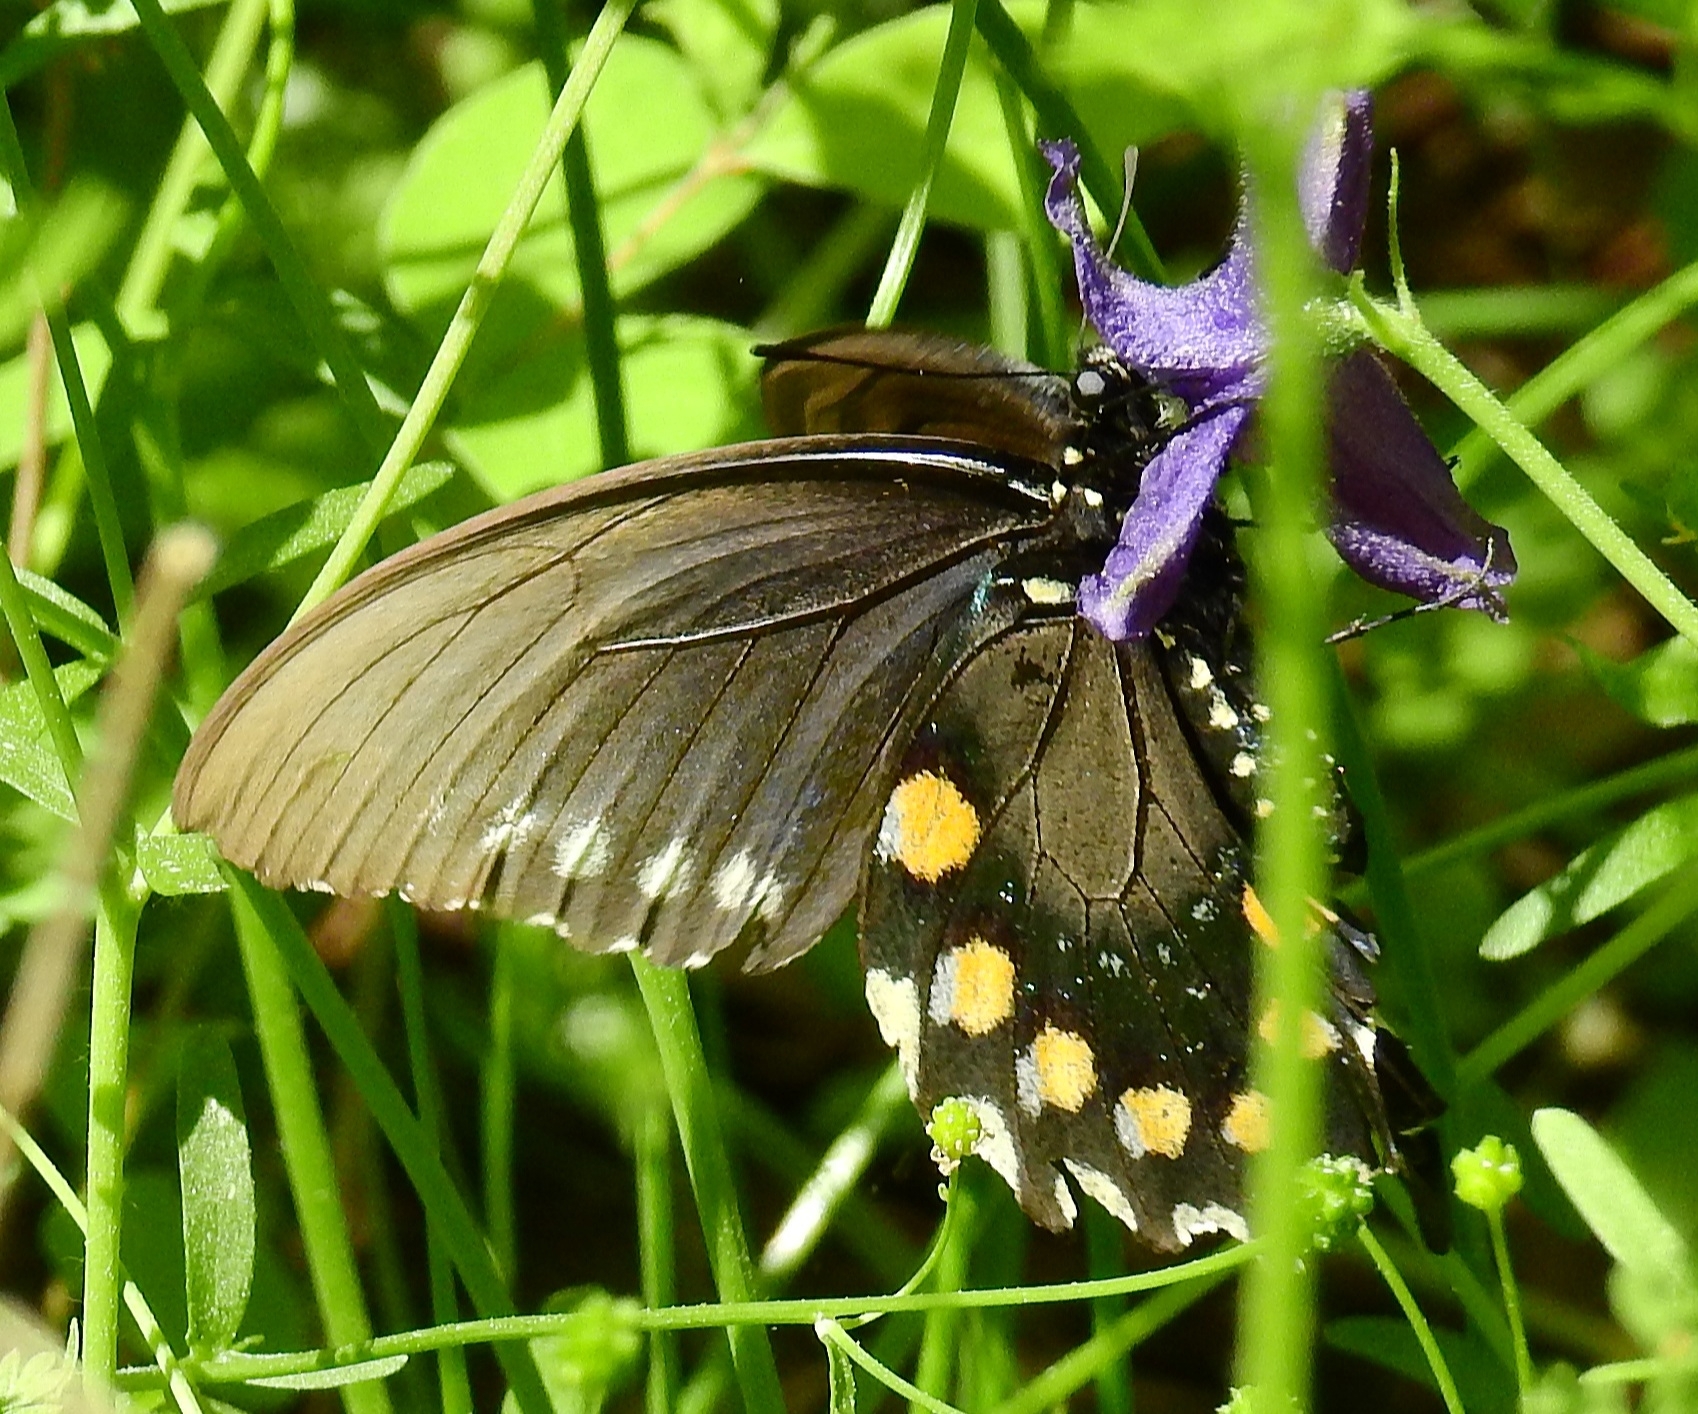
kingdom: Animalia
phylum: Arthropoda
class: Insecta
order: Lepidoptera
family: Papilionidae
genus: Battus
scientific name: Battus philenor
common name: Pipevine swallowtail
